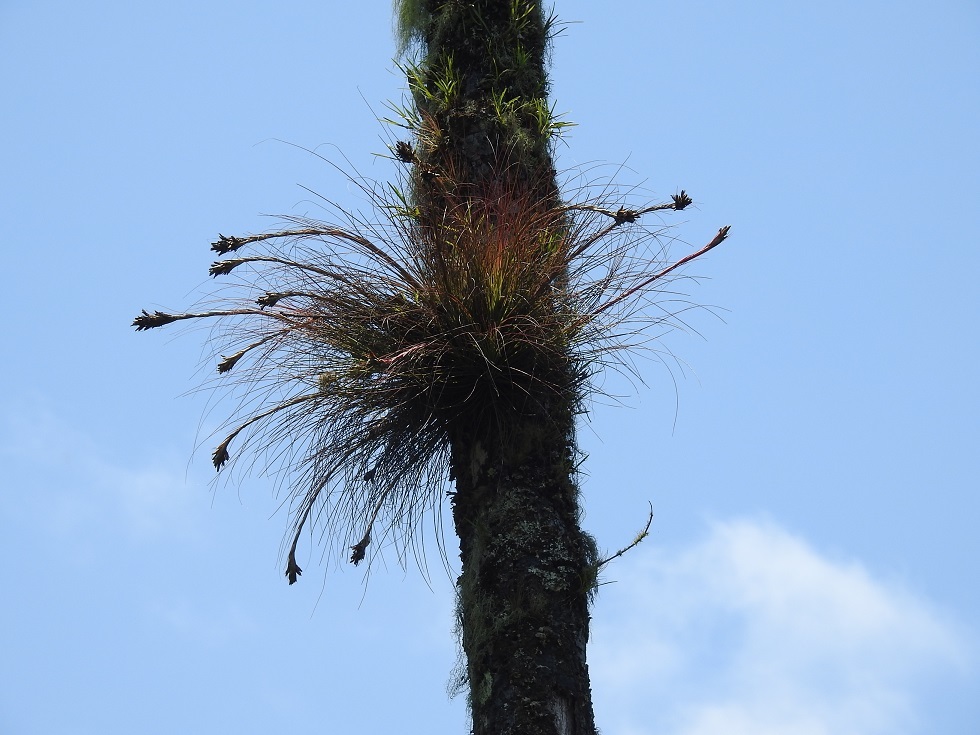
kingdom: Plantae
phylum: Tracheophyta
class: Liliopsida
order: Poales
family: Bromeliaceae
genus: Tillandsia
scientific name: Tillandsia juncea
